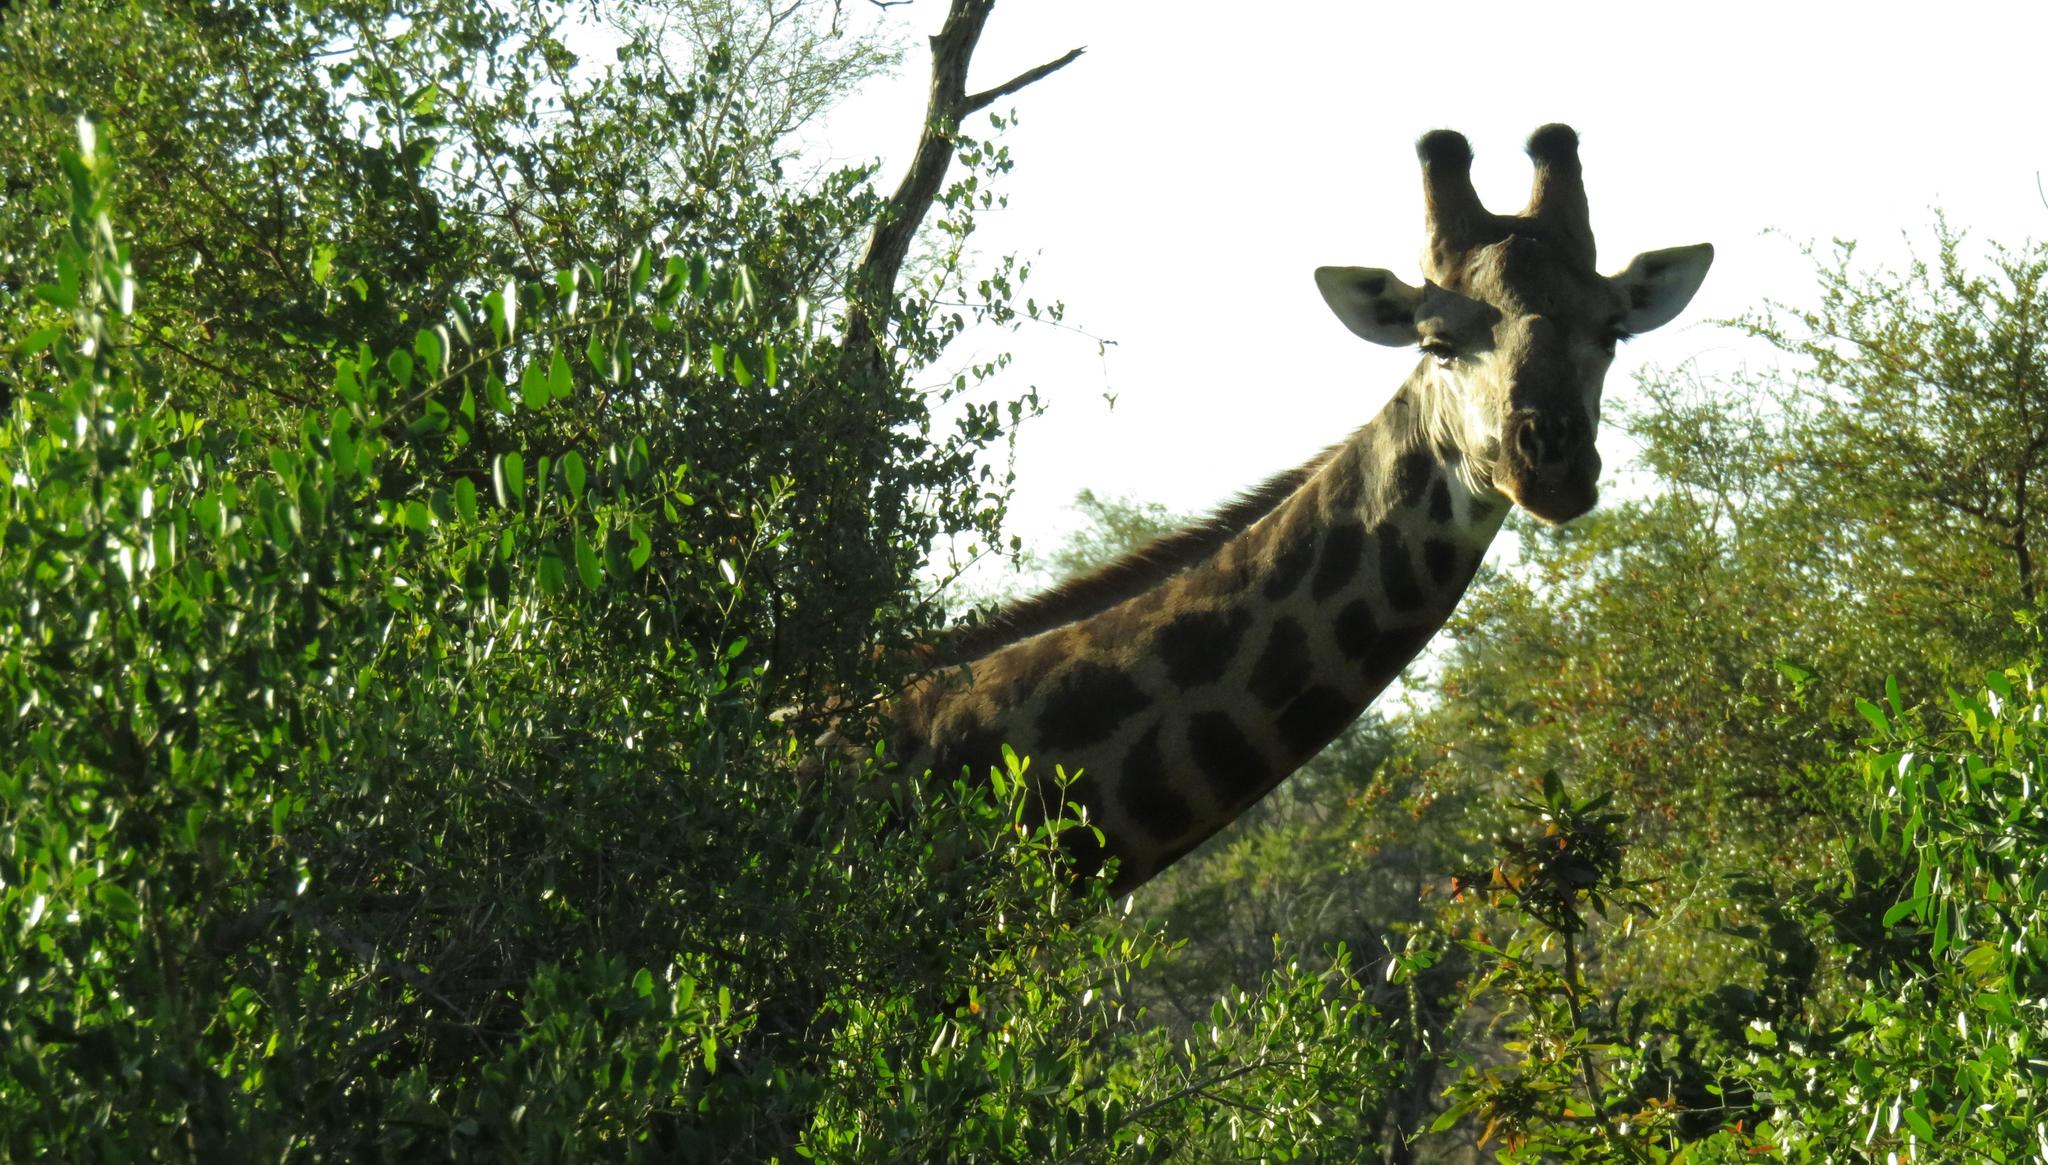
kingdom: Animalia
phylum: Chordata
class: Mammalia
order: Artiodactyla
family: Giraffidae
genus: Giraffa
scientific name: Giraffa giraffa
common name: Southern giraffe
